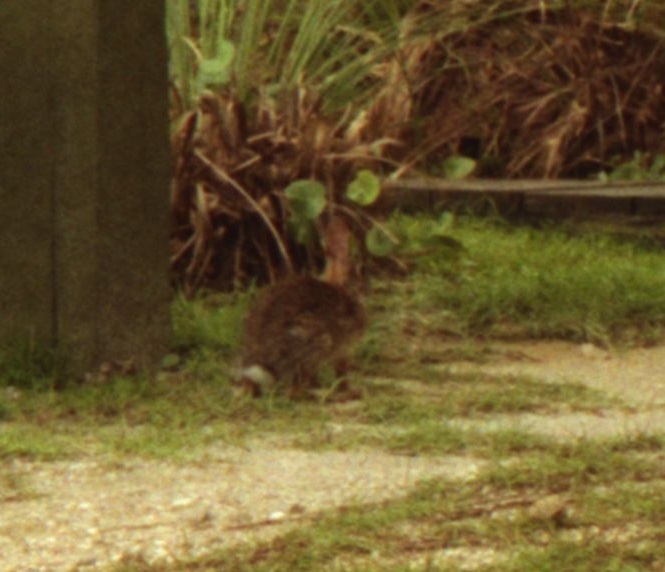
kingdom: Animalia
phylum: Chordata
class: Mammalia
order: Lagomorpha
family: Leporidae
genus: Sylvilagus
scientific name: Sylvilagus floridanus
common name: Eastern cottontail
